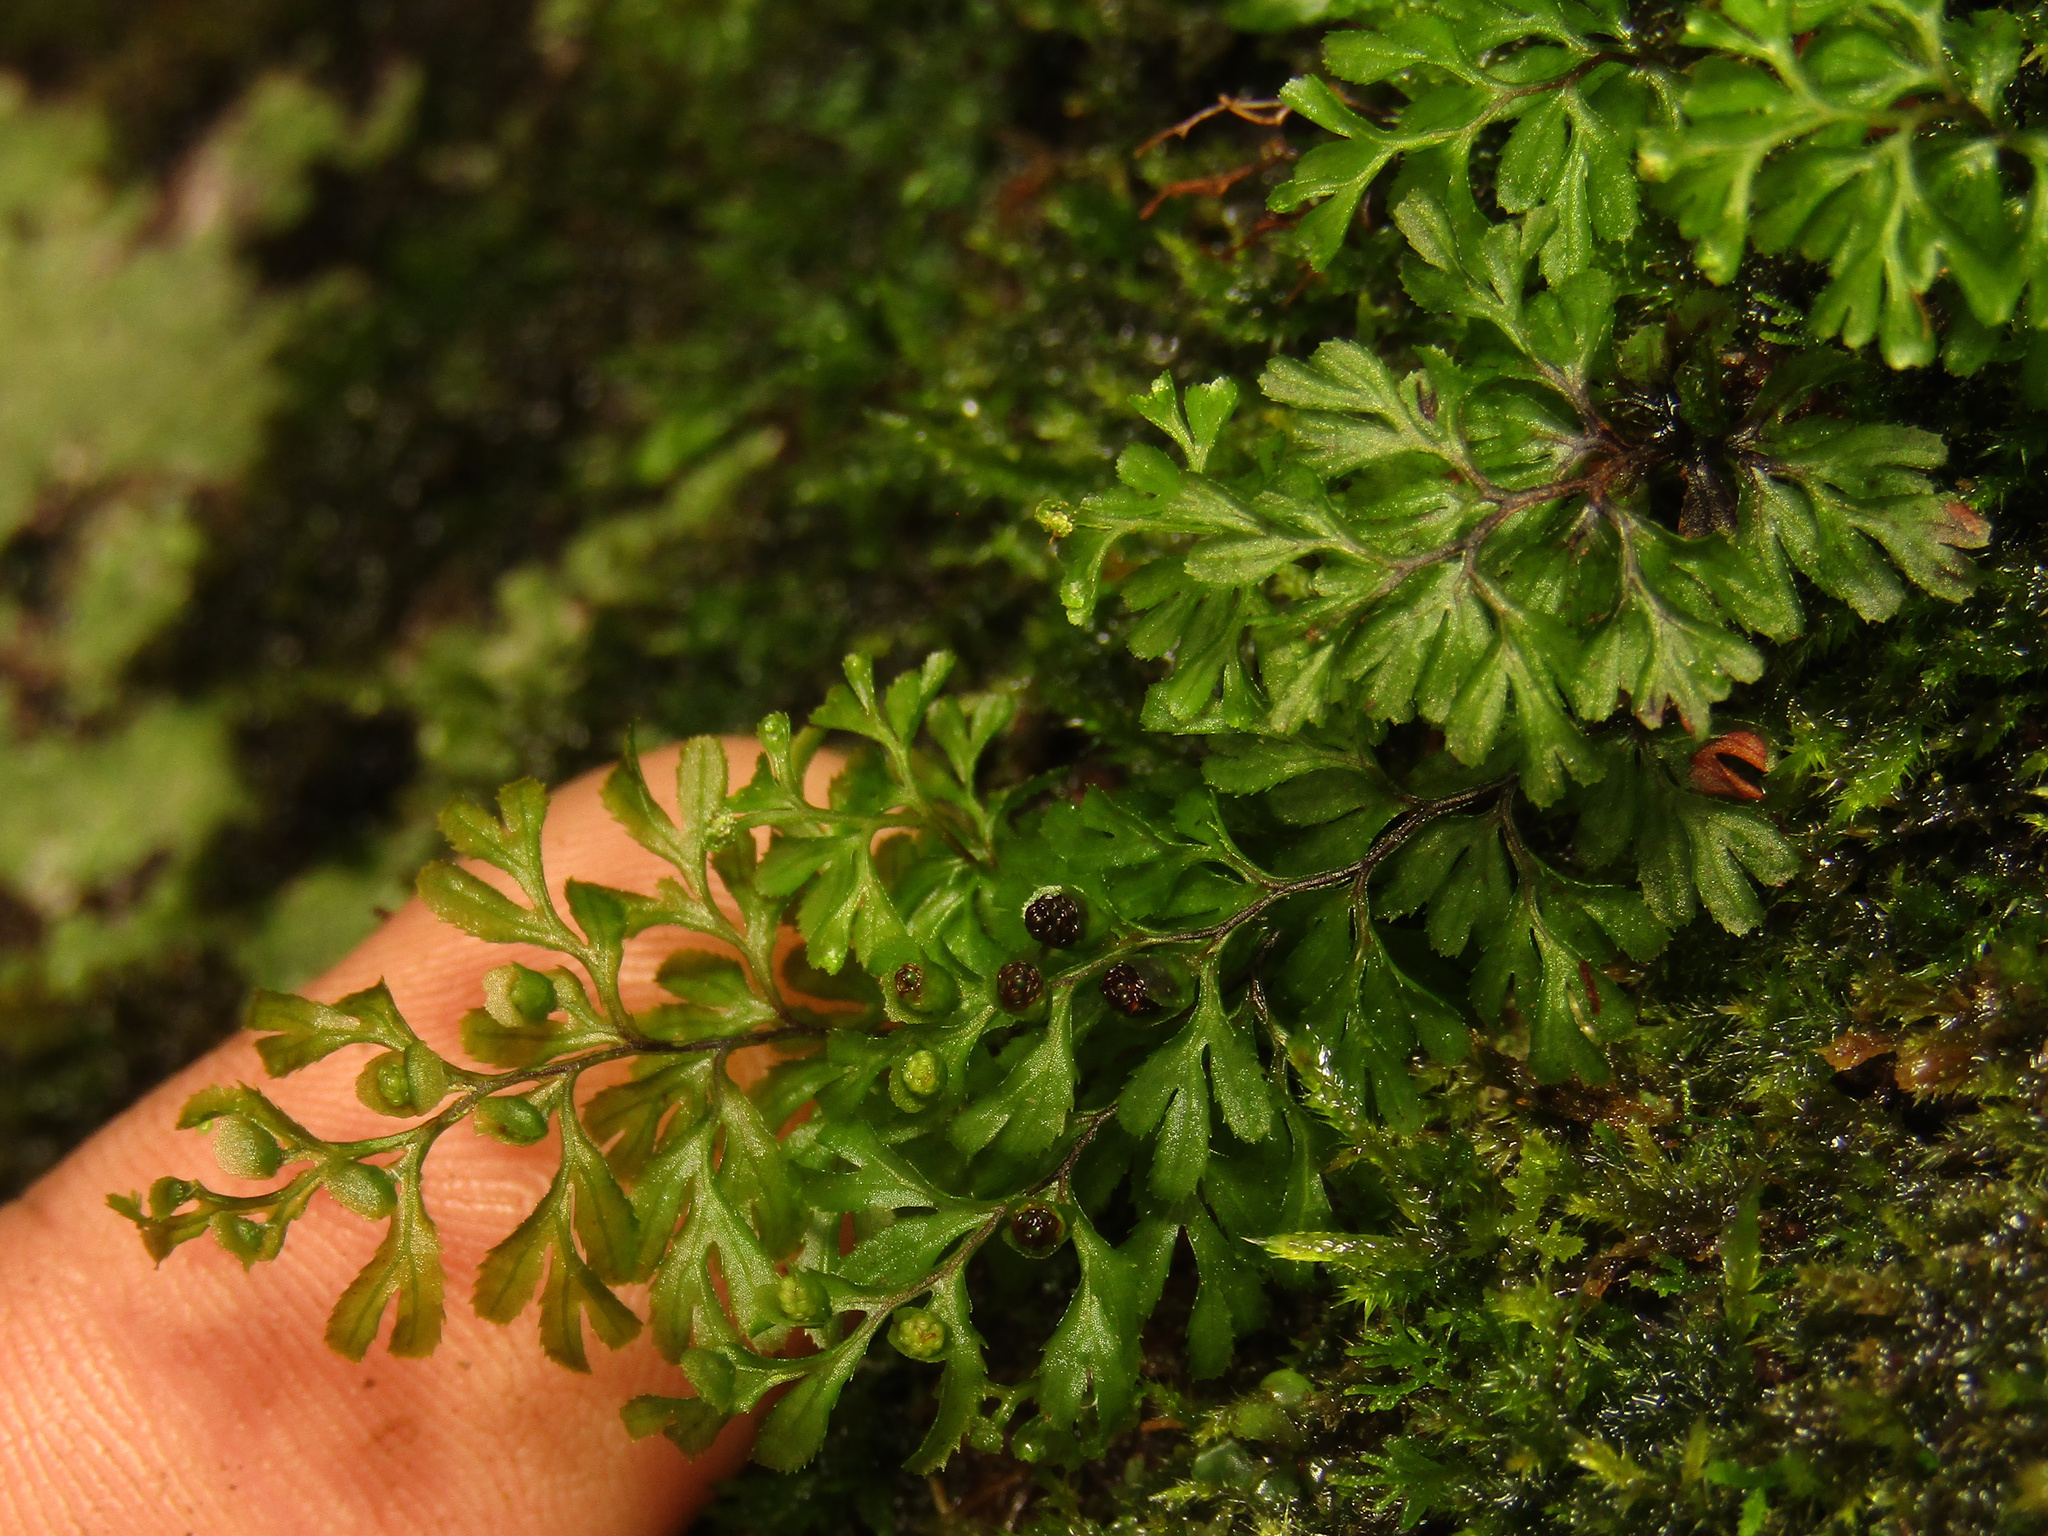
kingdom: Plantae
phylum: Tracheophyta
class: Polypodiopsida
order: Hymenophyllales
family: Hymenophyllaceae
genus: Hymenophyllum
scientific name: Hymenophyllum cupressiforme
